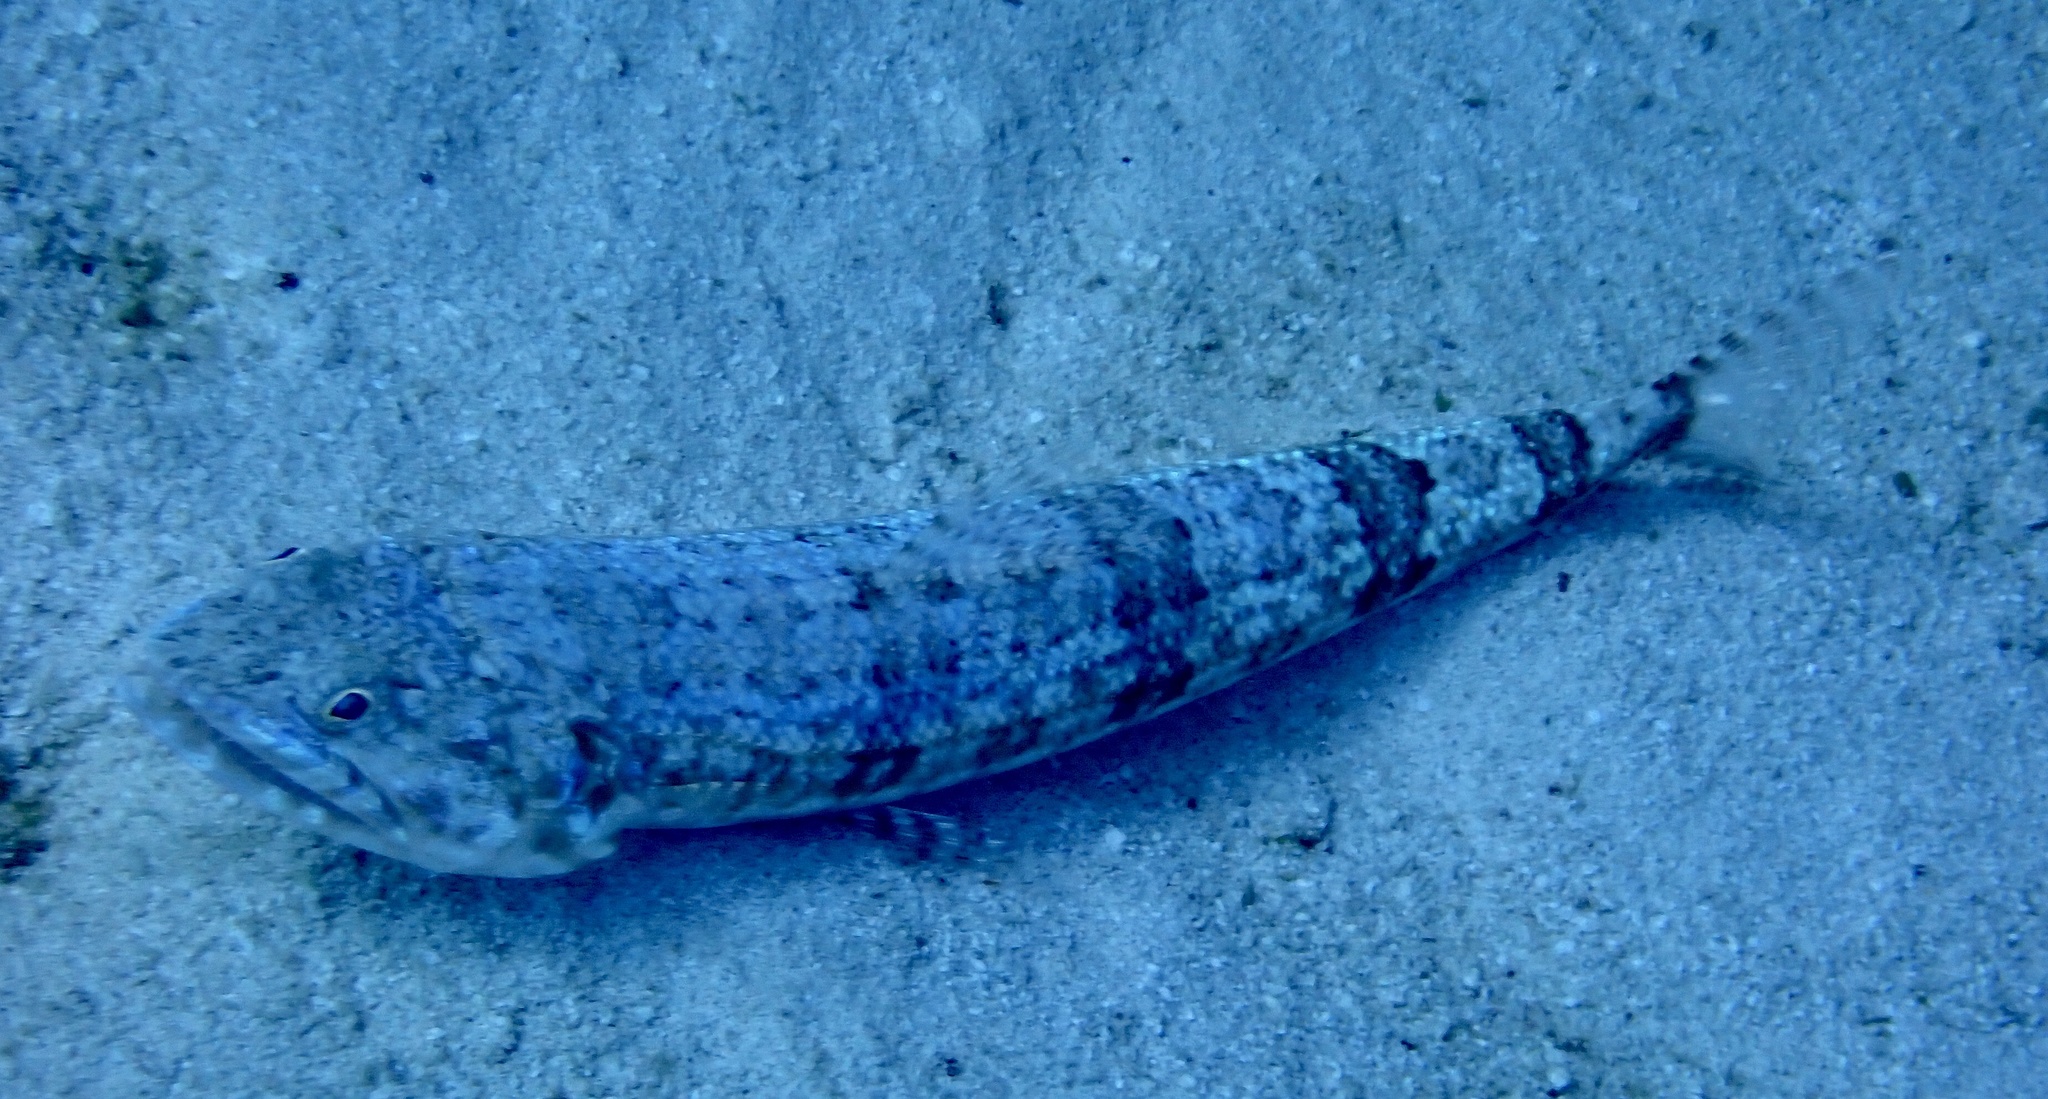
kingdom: Animalia
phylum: Chordata
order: Aulopiformes
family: Synodontidae
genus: Synodus
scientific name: Synodus variegatus
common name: Variegated lizardfish
